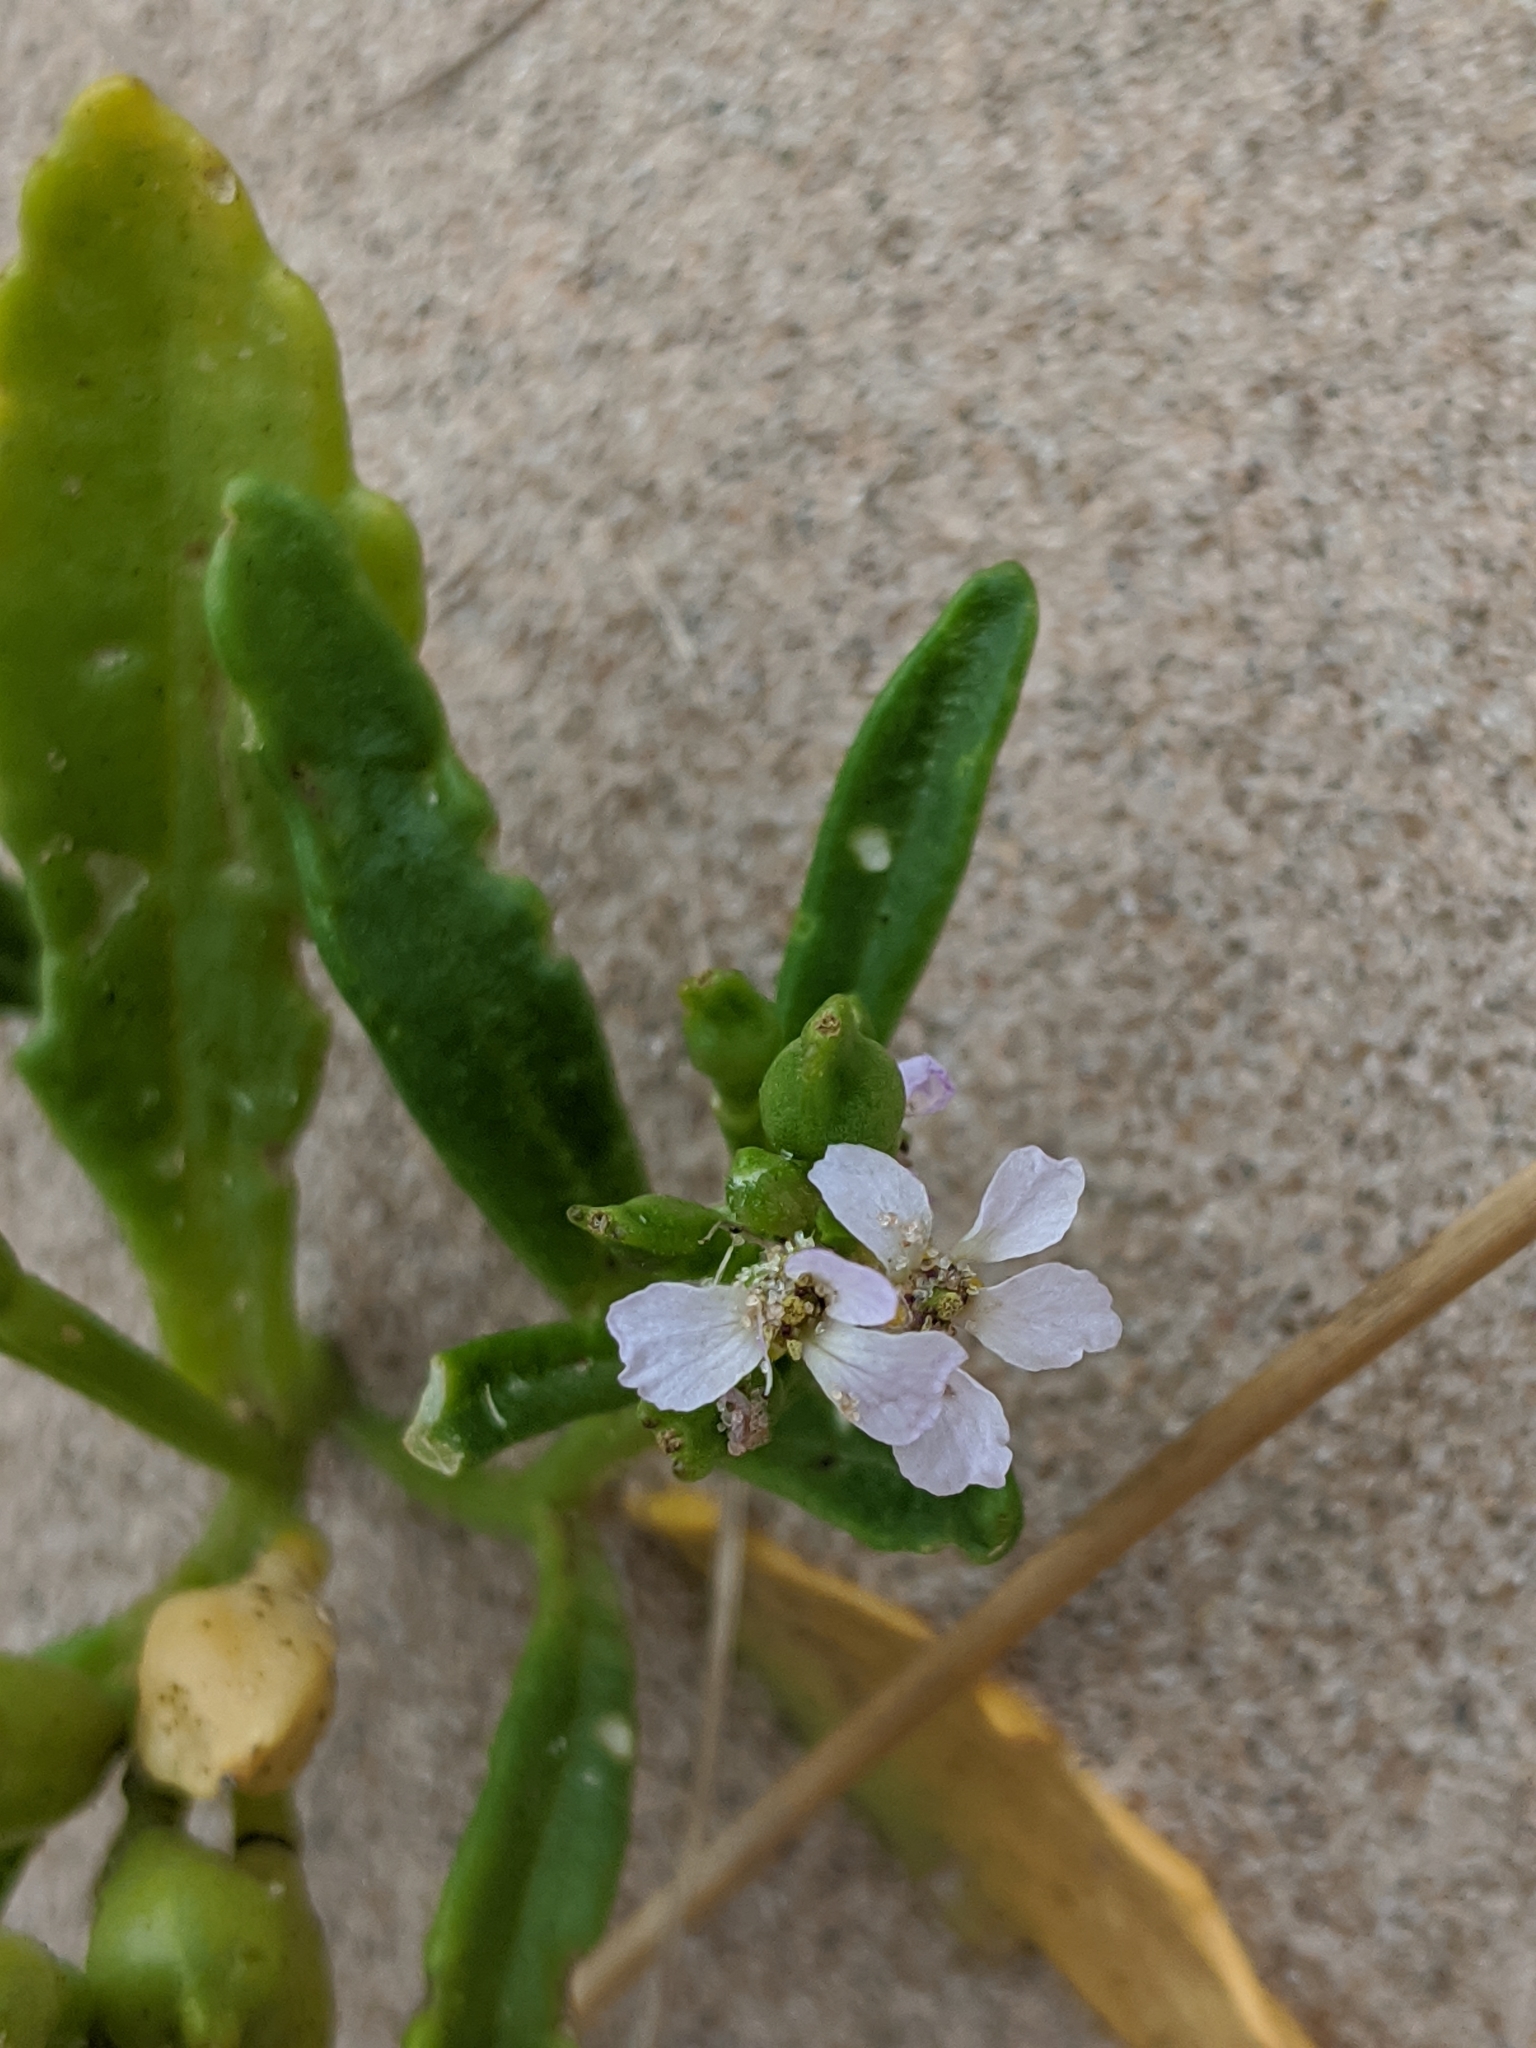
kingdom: Plantae
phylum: Tracheophyta
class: Magnoliopsida
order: Brassicales
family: Brassicaceae
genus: Cakile
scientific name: Cakile edentula
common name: American sea rocket
